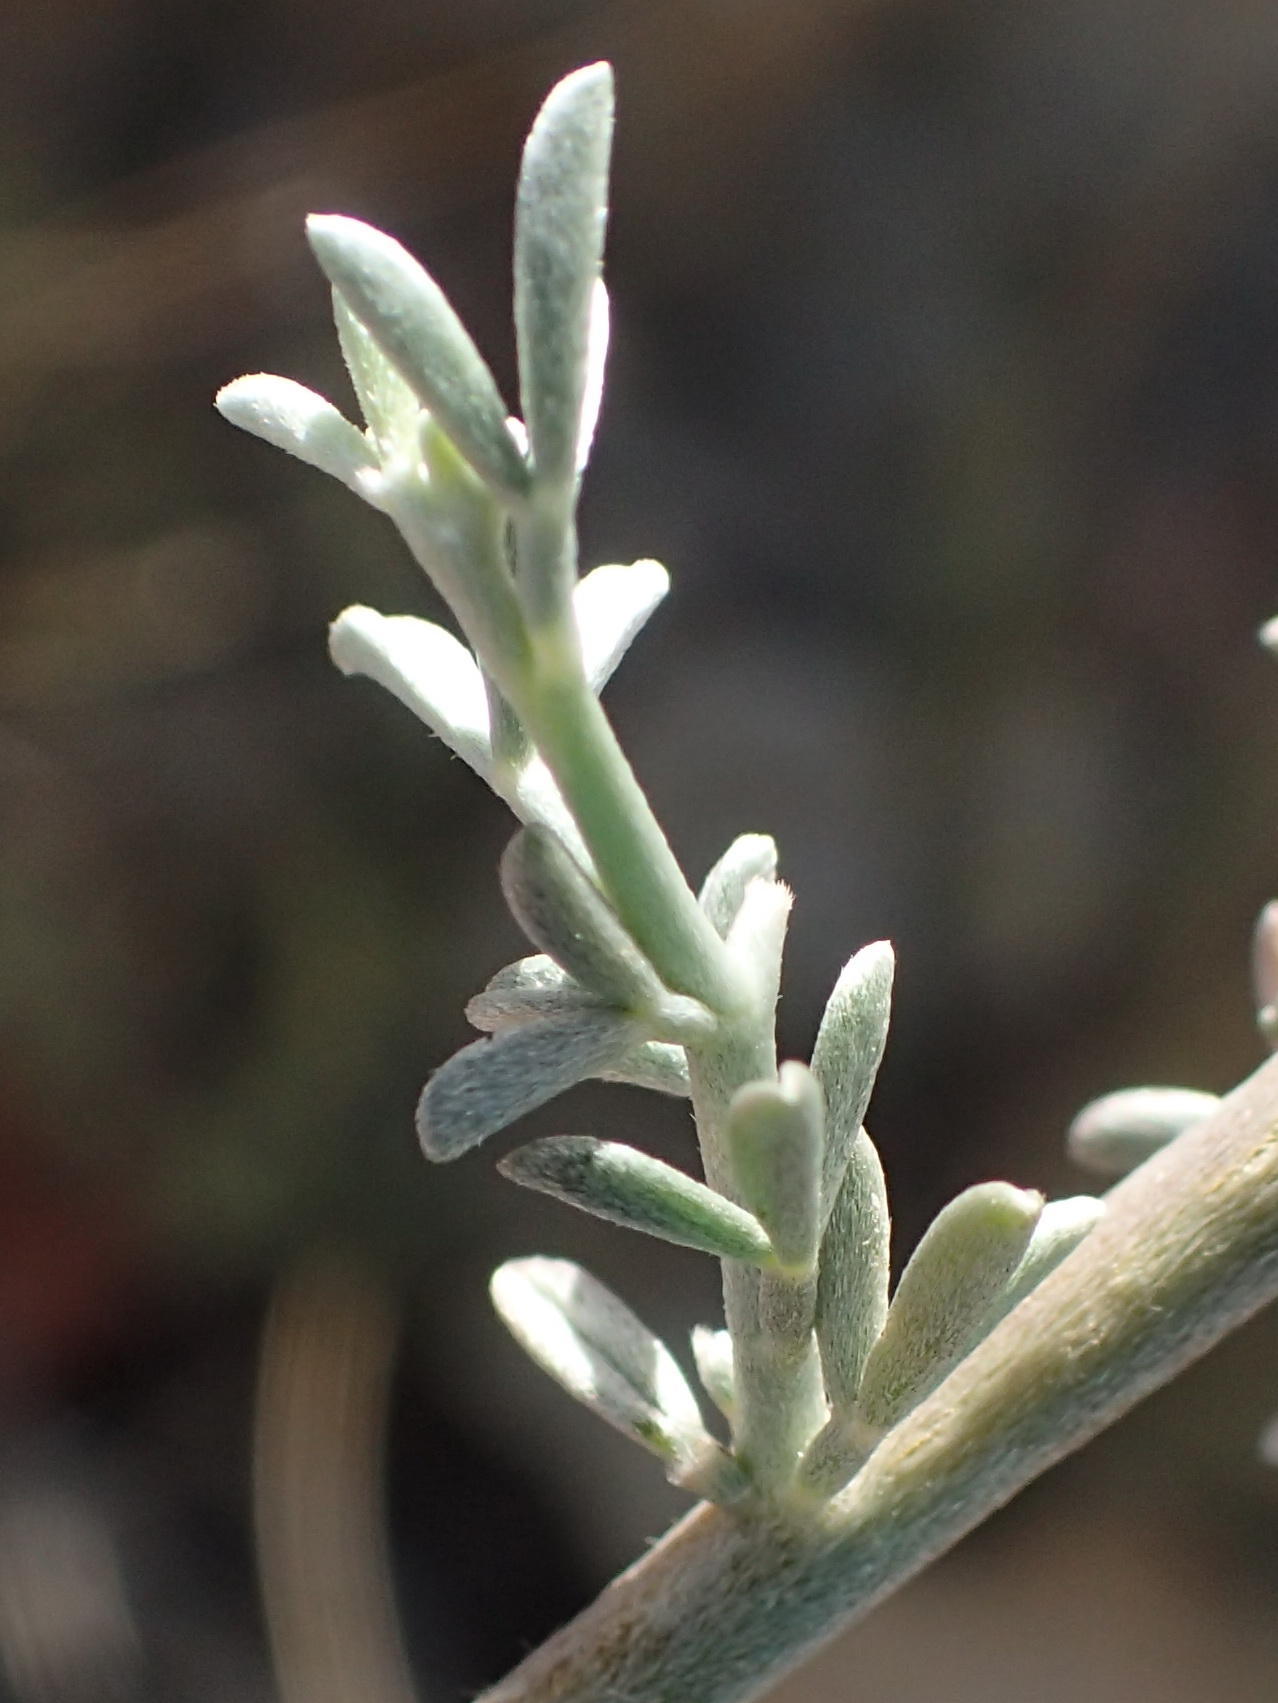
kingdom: Plantae
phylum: Tracheophyta
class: Magnoliopsida
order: Fabales
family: Fabaceae
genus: Lotononis
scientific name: Lotononis dahlgrenii
